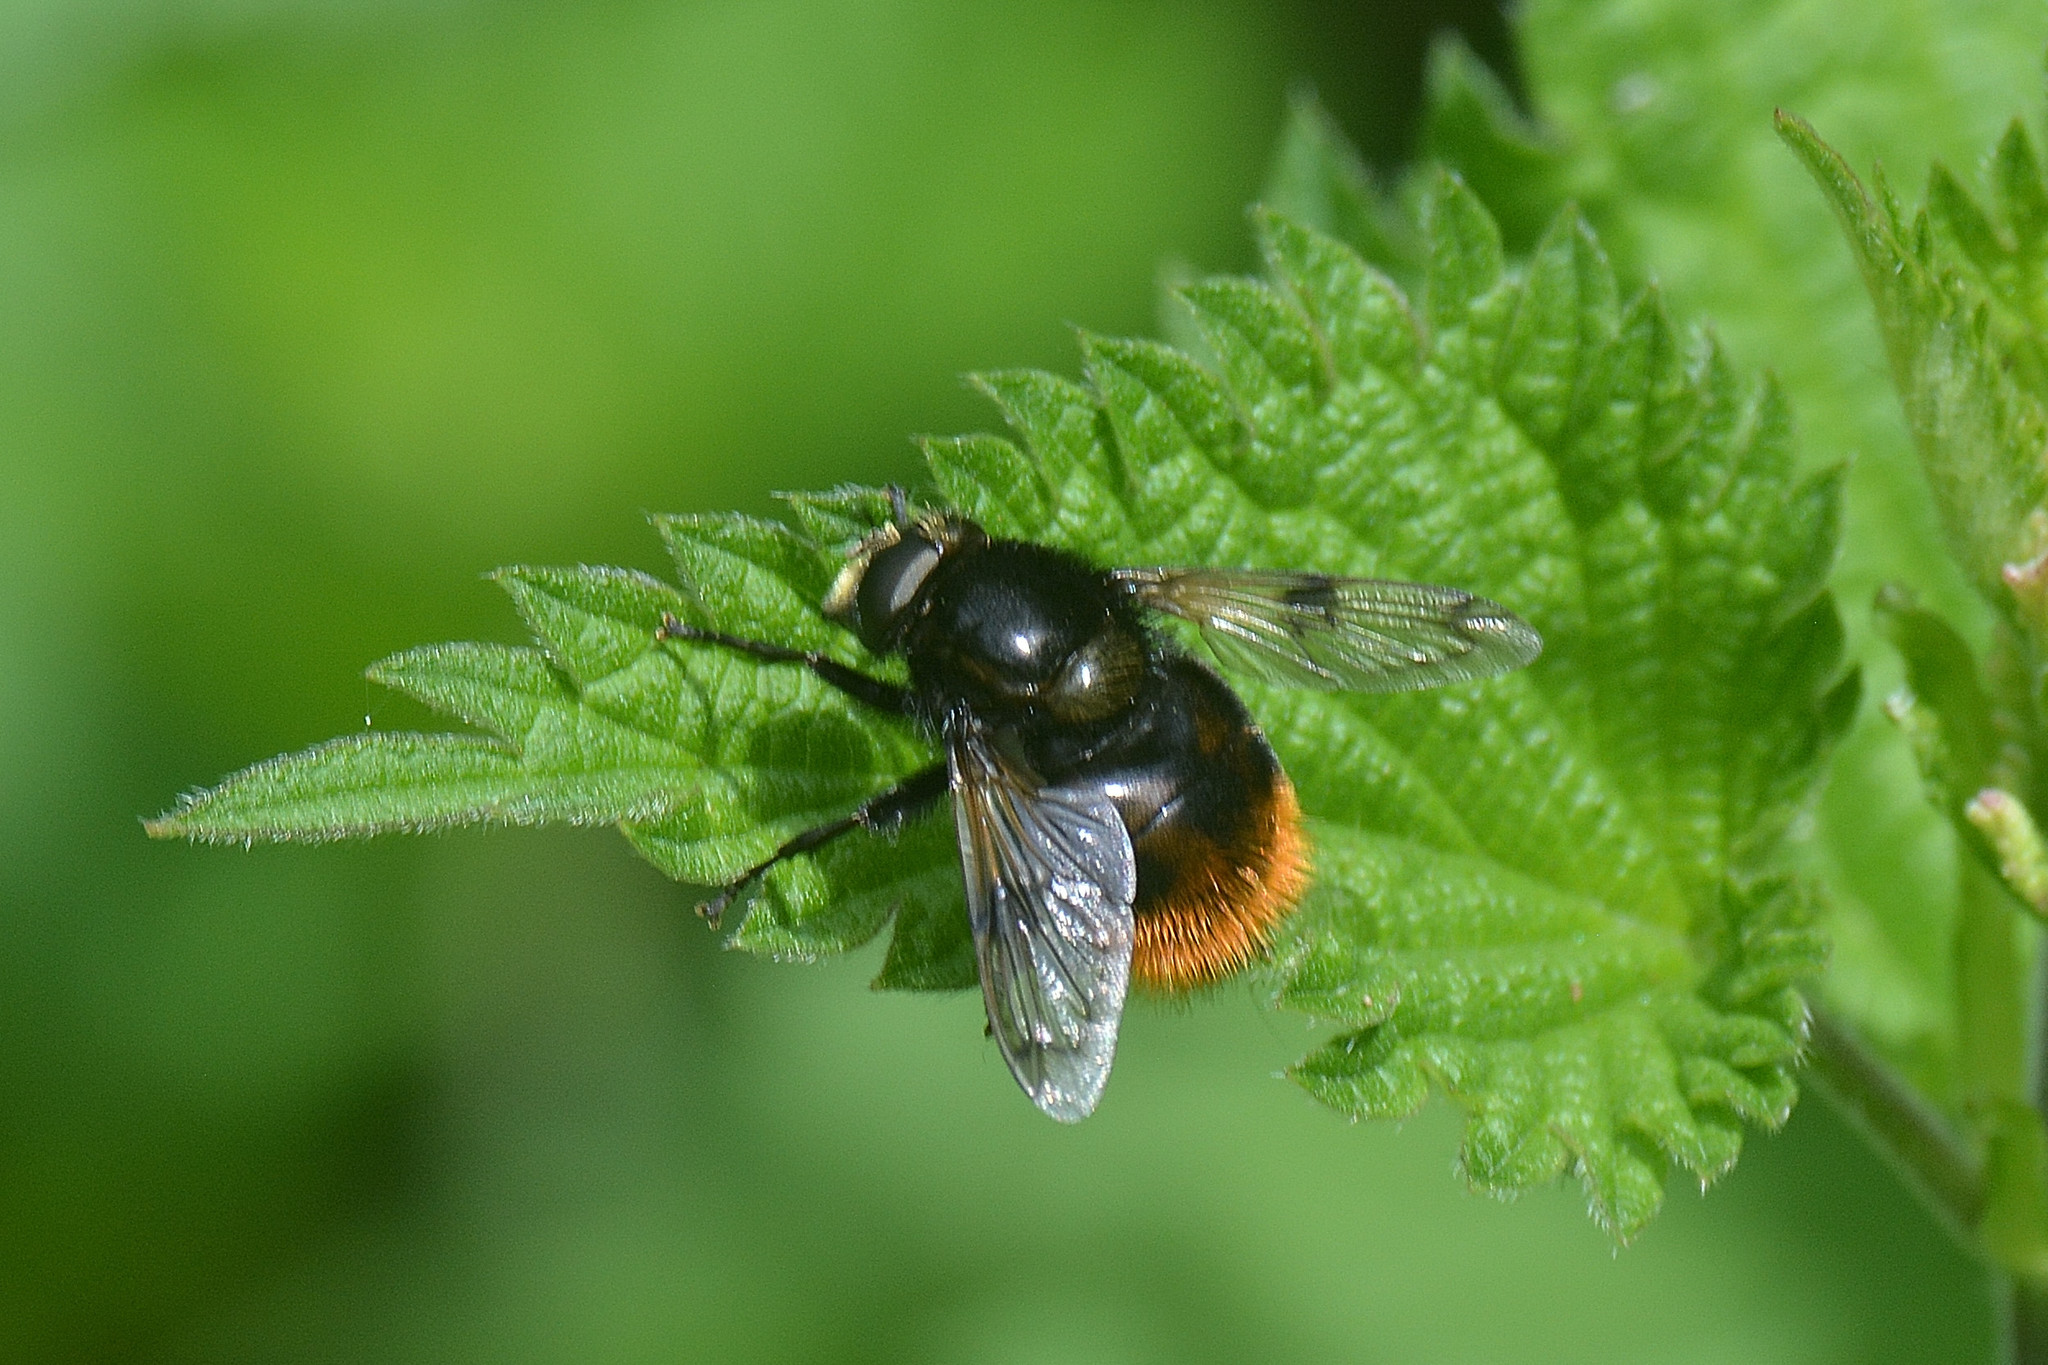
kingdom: Animalia
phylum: Arthropoda
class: Insecta
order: Diptera
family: Syrphidae
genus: Volucella
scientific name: Volucella bombylans
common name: Bumble bee hover fly
